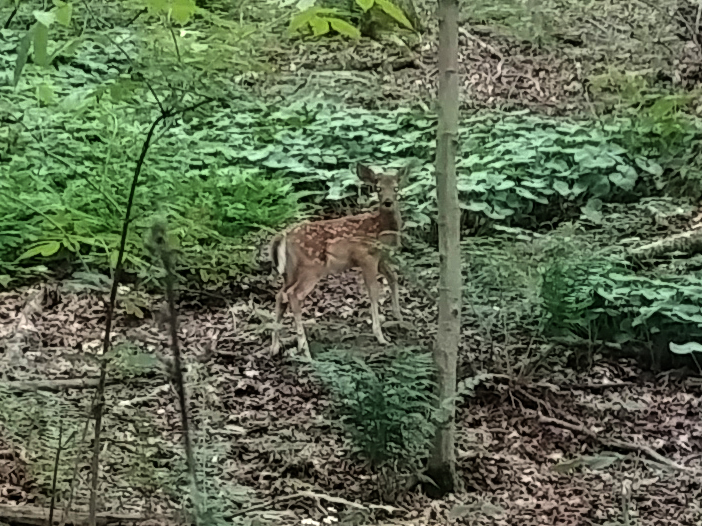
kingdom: Animalia
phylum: Chordata
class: Mammalia
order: Artiodactyla
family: Cervidae
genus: Odocoileus
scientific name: Odocoileus virginianus
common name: White-tailed deer
